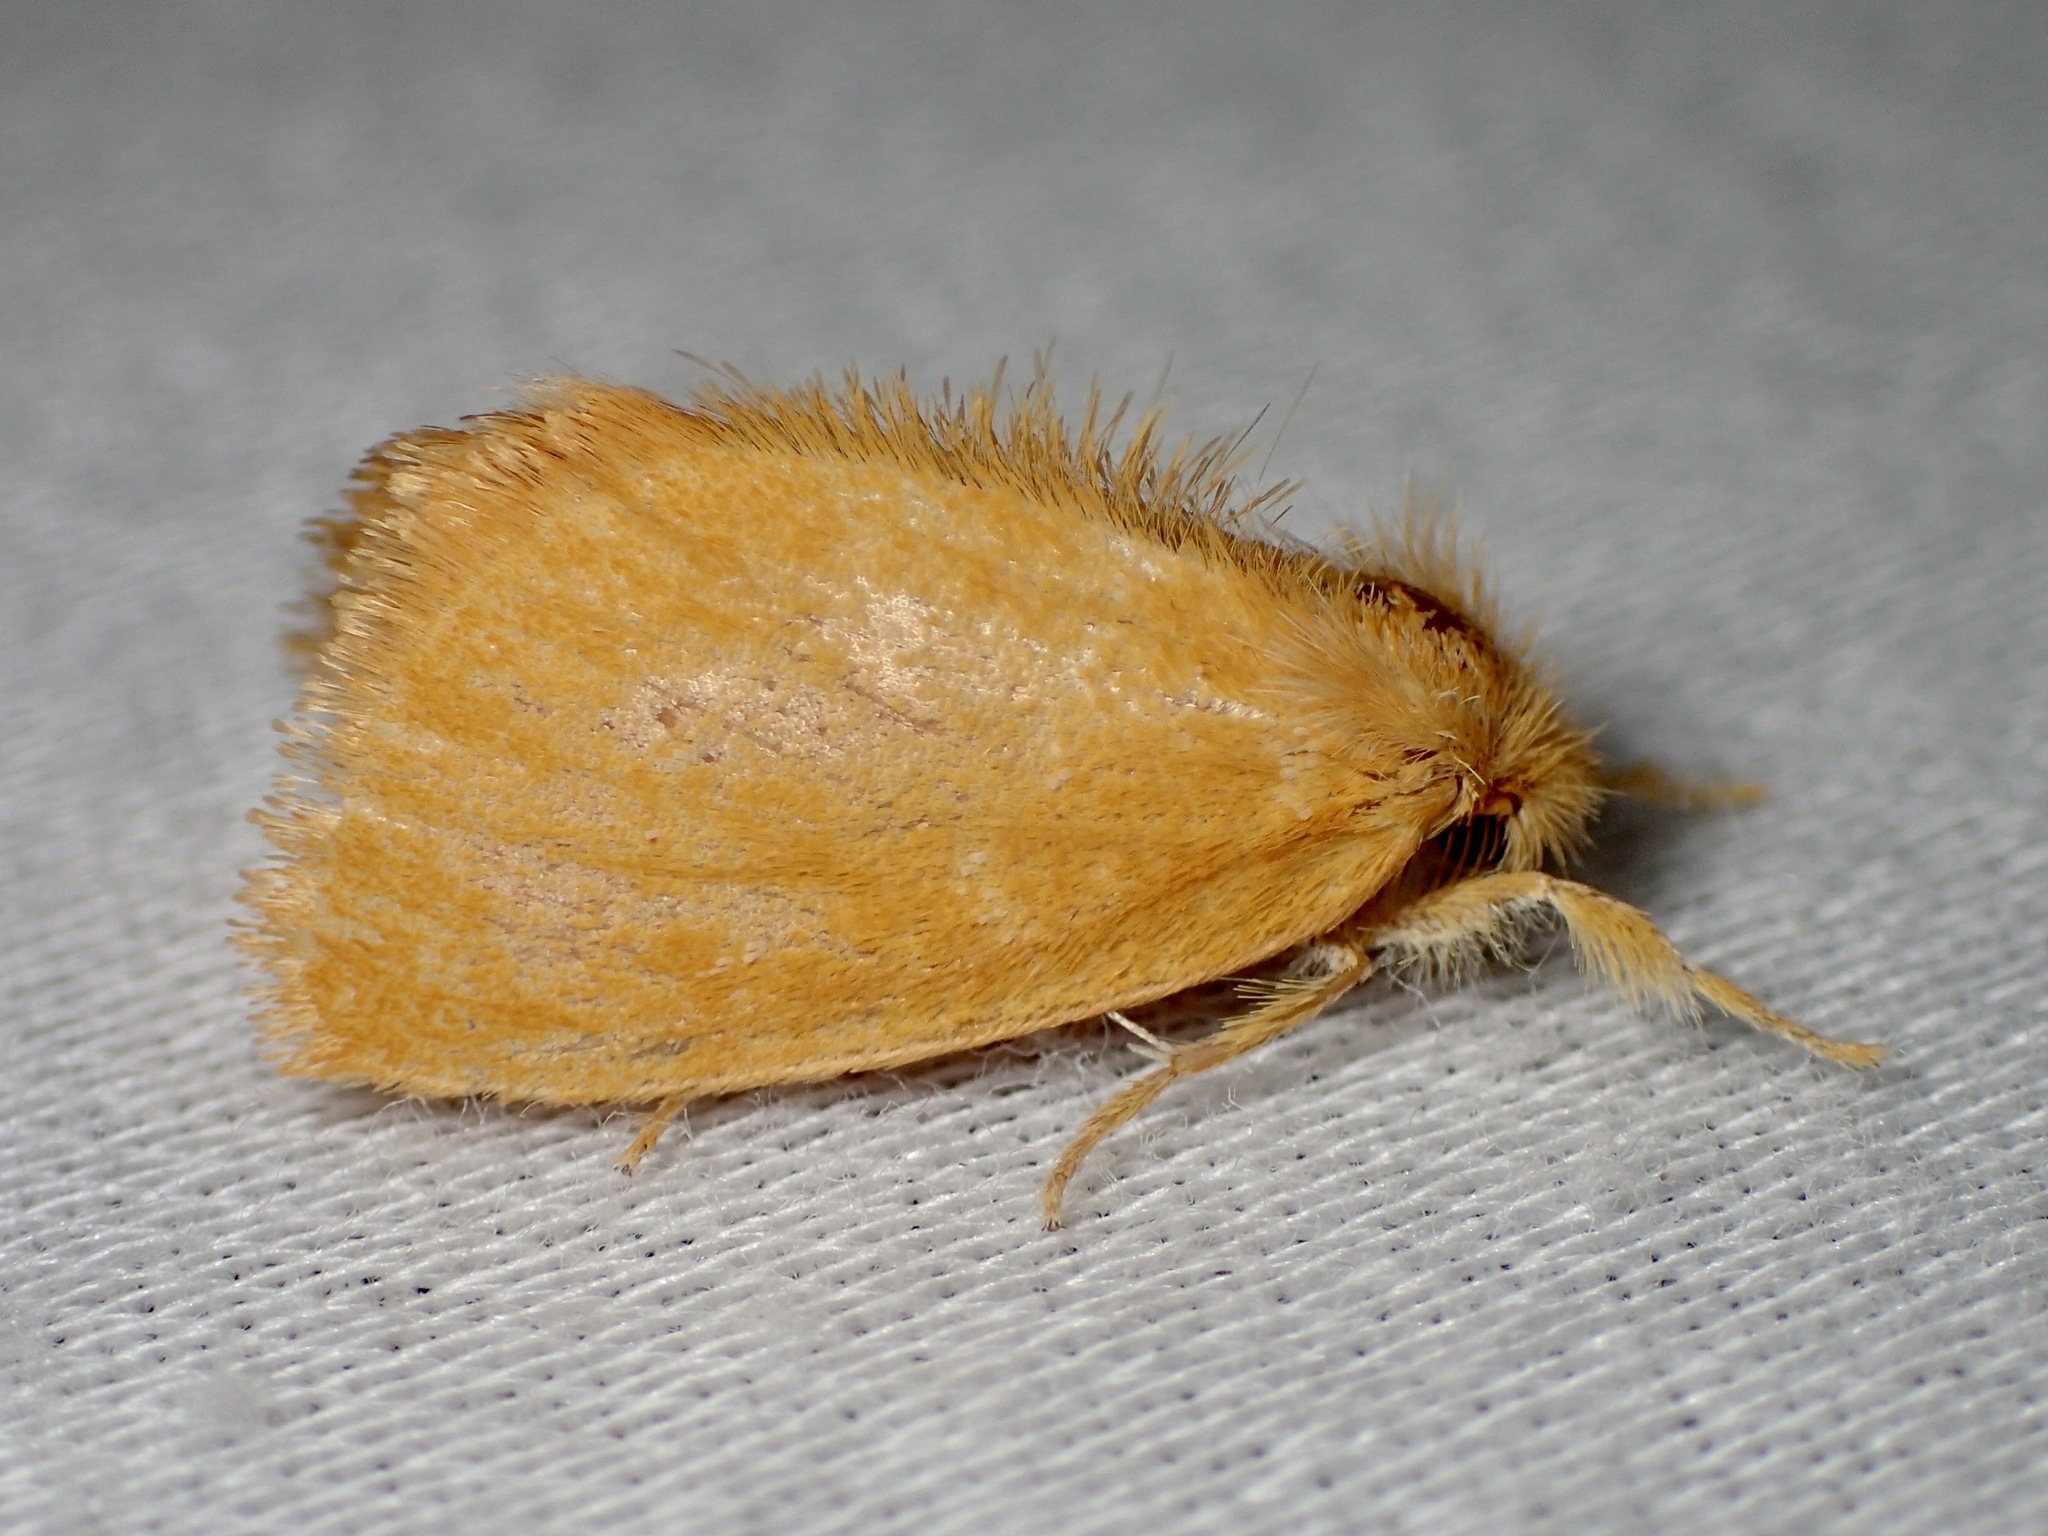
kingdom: Animalia
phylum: Arthropoda
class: Insecta
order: Lepidoptera
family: Erebidae
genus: Euproctis
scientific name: Euproctis lutea
